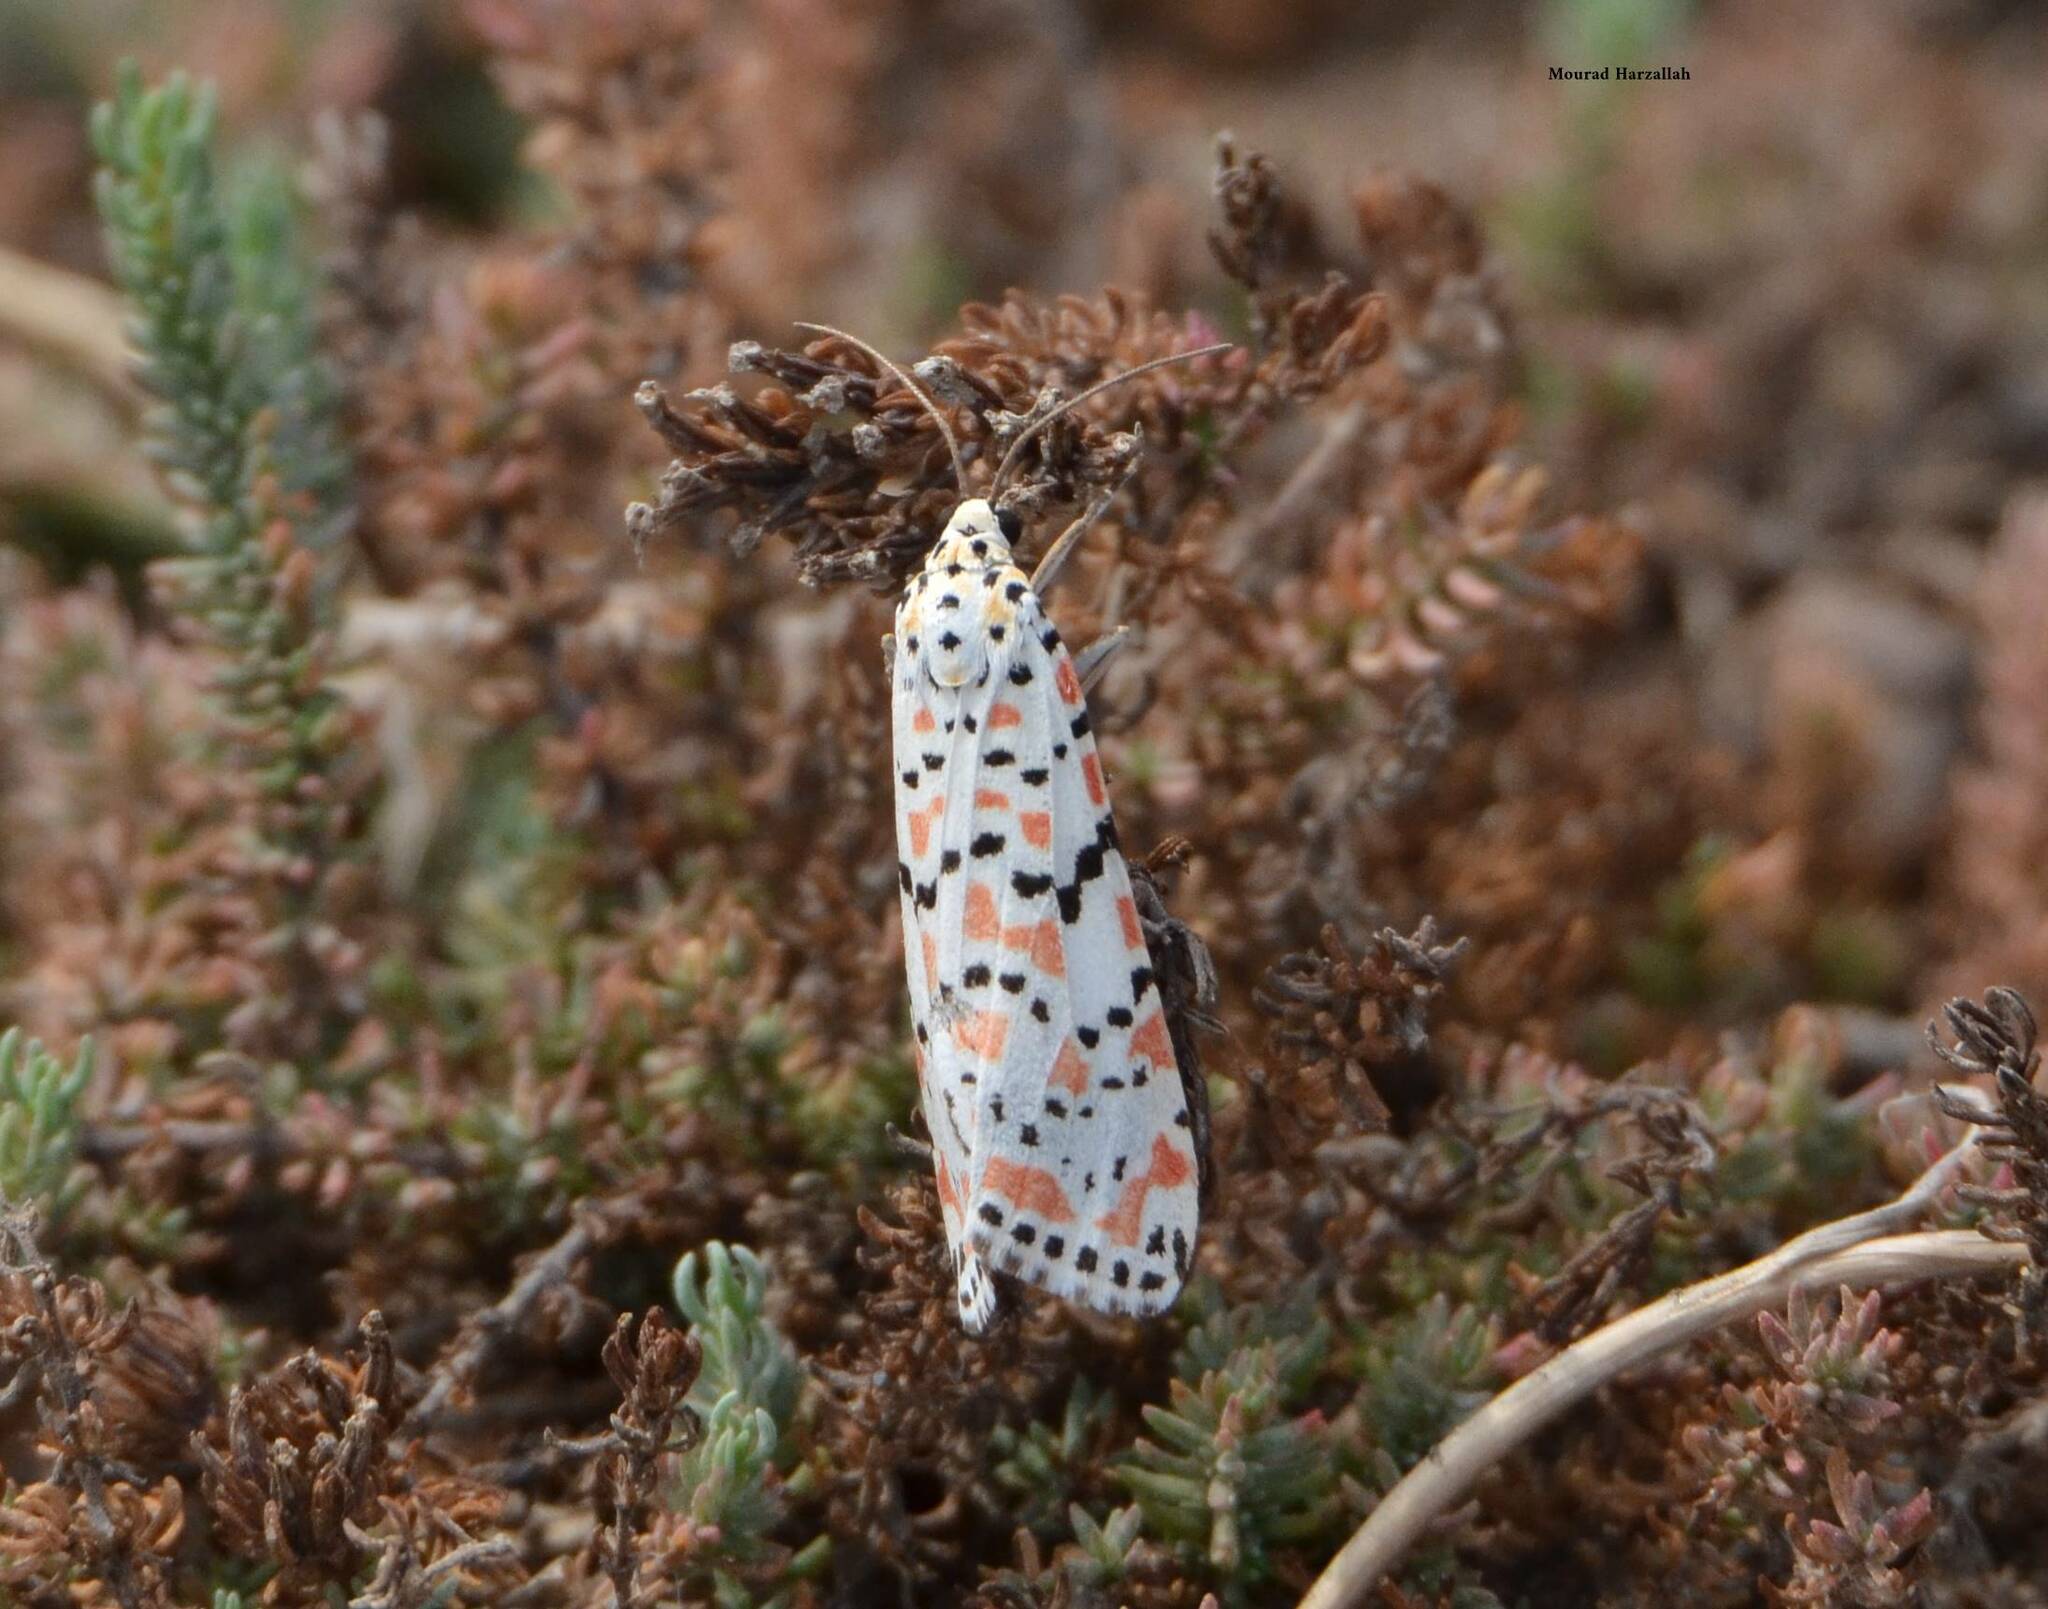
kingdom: Animalia
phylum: Arthropoda
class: Insecta
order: Lepidoptera
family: Erebidae
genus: Utetheisa
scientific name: Utetheisa pulchella
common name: Crimson speckled
